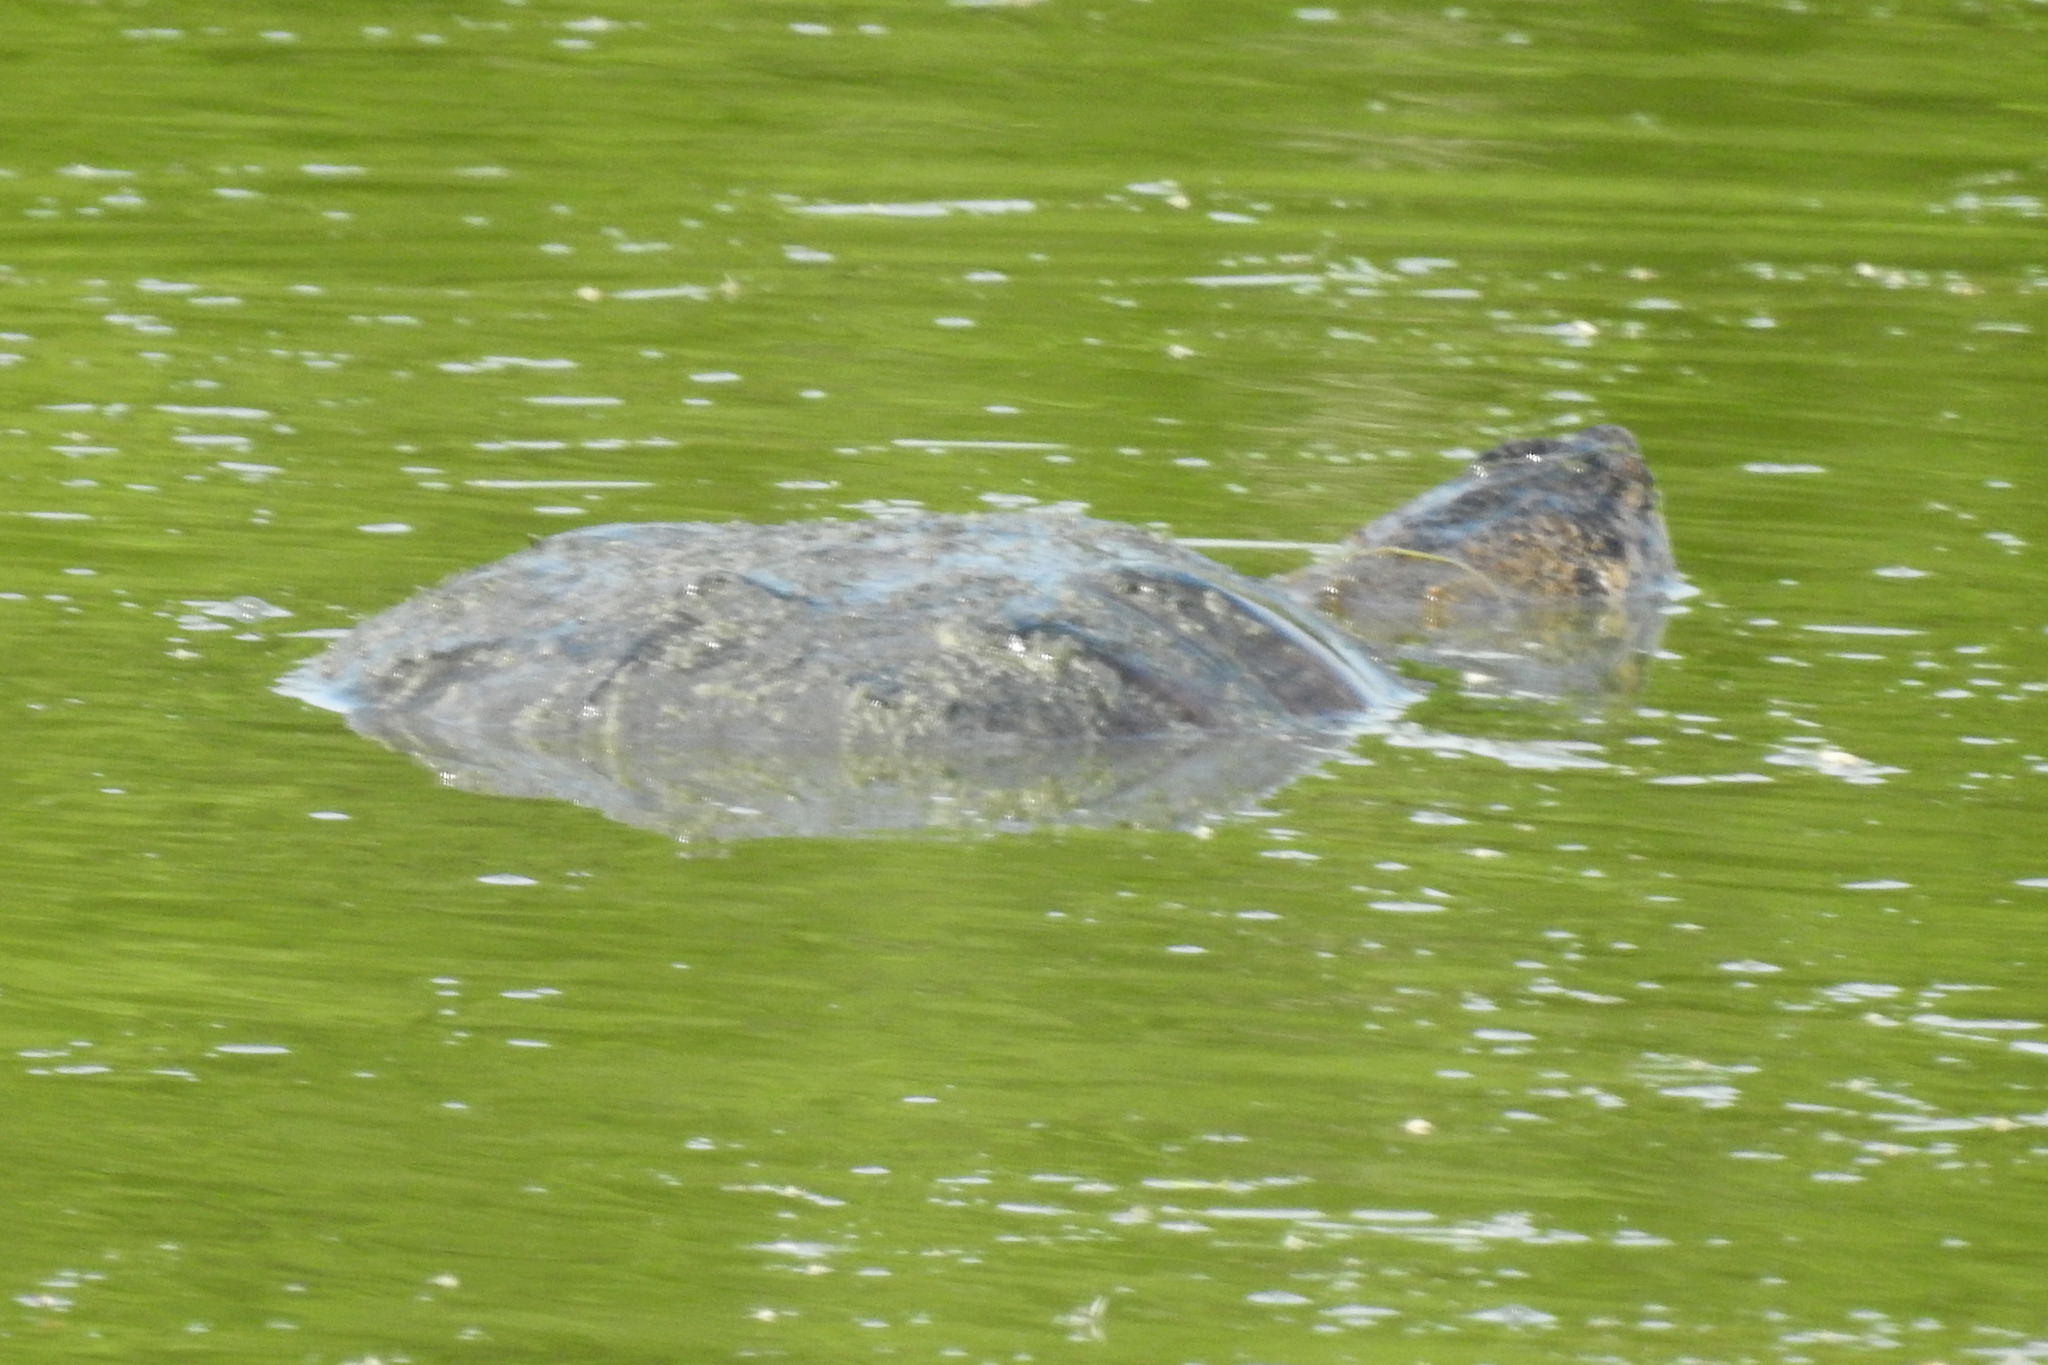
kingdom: Animalia
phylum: Chordata
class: Testudines
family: Chelydridae
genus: Chelydra
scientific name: Chelydra serpentina
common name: Common snapping turtle
